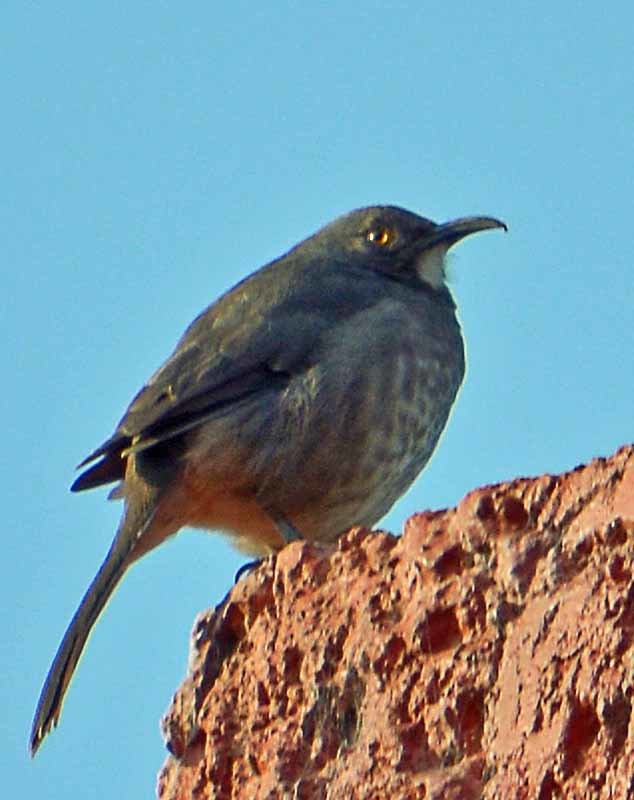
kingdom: Animalia
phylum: Chordata
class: Aves
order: Passeriformes
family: Mimidae
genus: Toxostoma
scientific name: Toxostoma curvirostre
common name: Curve-billed thrasher
